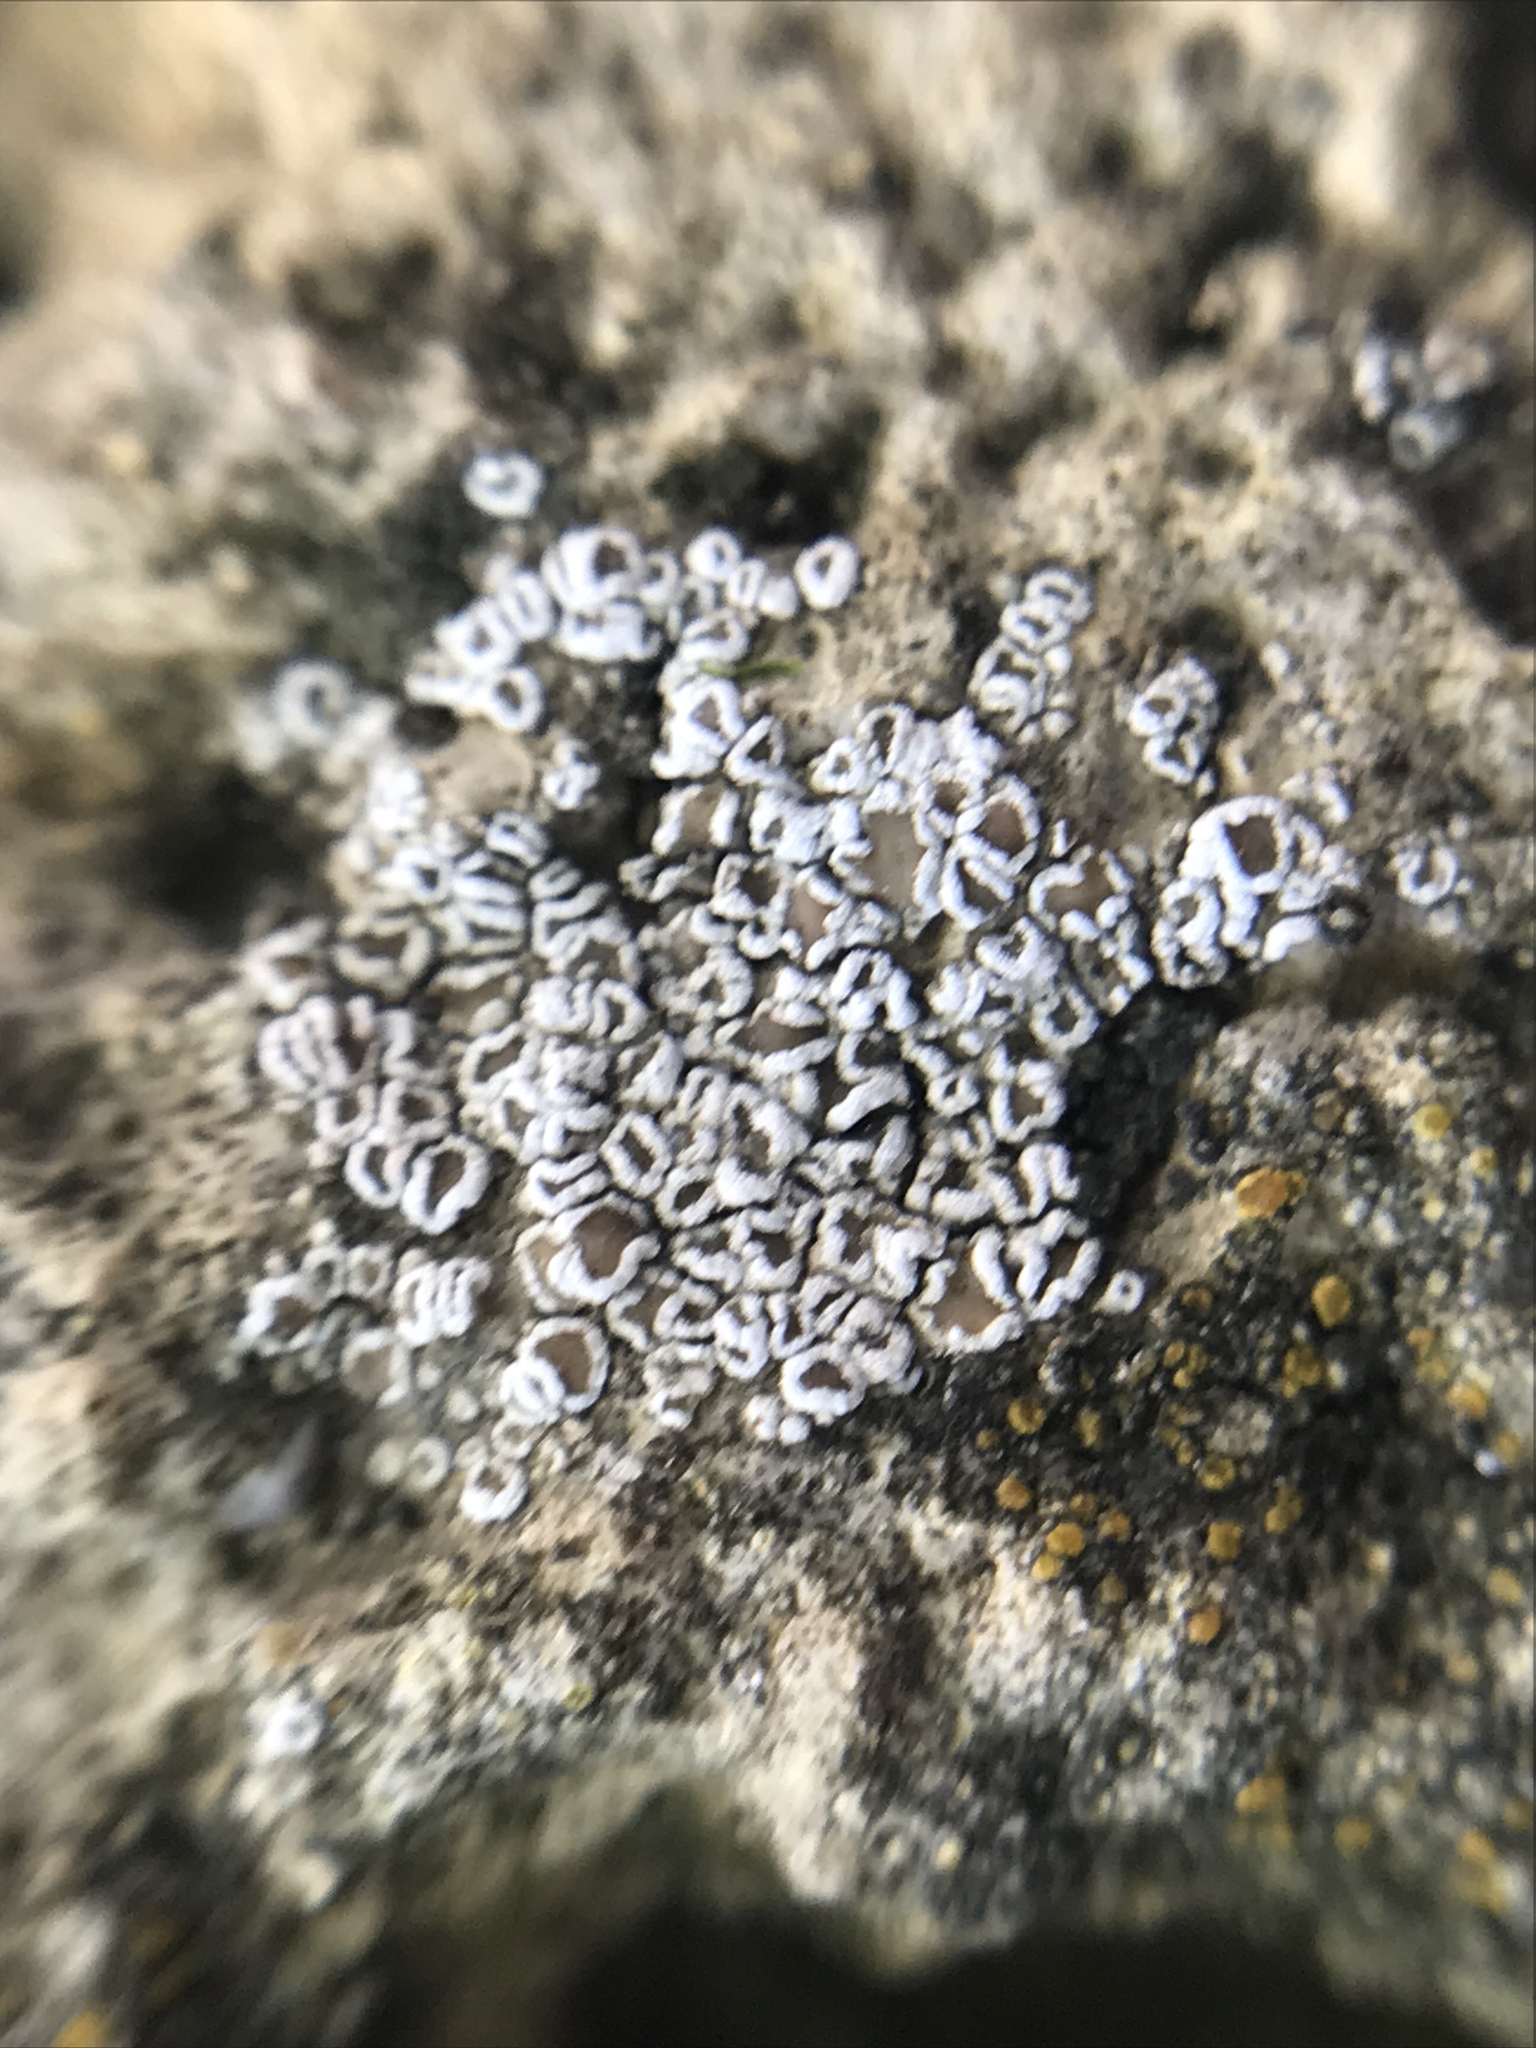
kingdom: Fungi
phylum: Ascomycota
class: Lecanoromycetes
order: Lecanorales
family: Lecanoraceae
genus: Polyozosia
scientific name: Polyozosia dispersa
